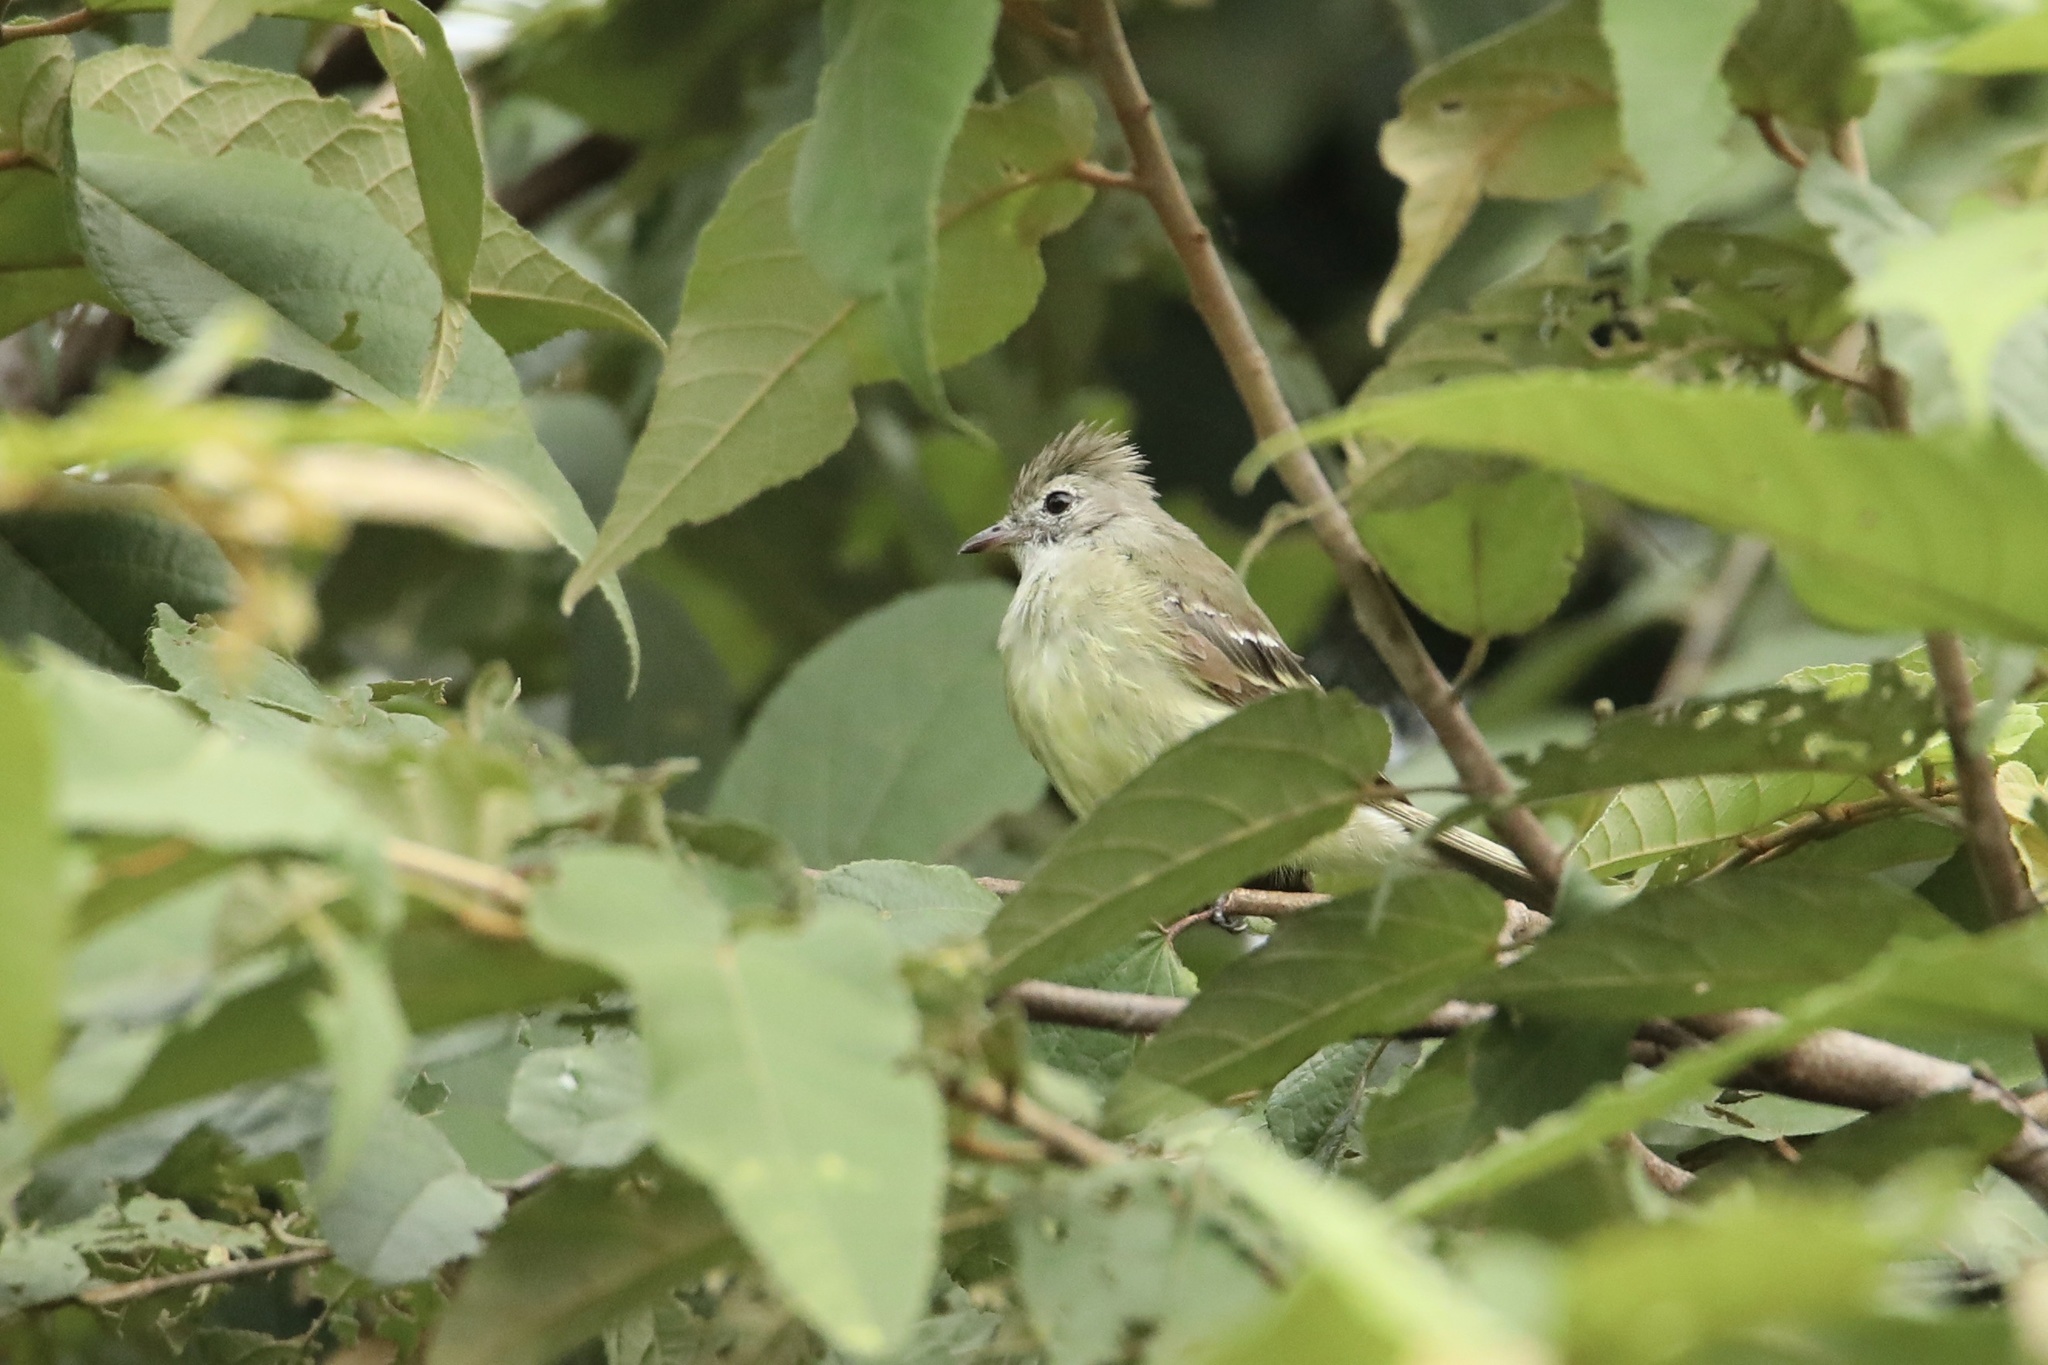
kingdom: Animalia
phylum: Chordata
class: Aves
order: Passeriformes
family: Tyrannidae
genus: Elaenia
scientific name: Elaenia flavogaster
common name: Yellow-bellied elaenia
